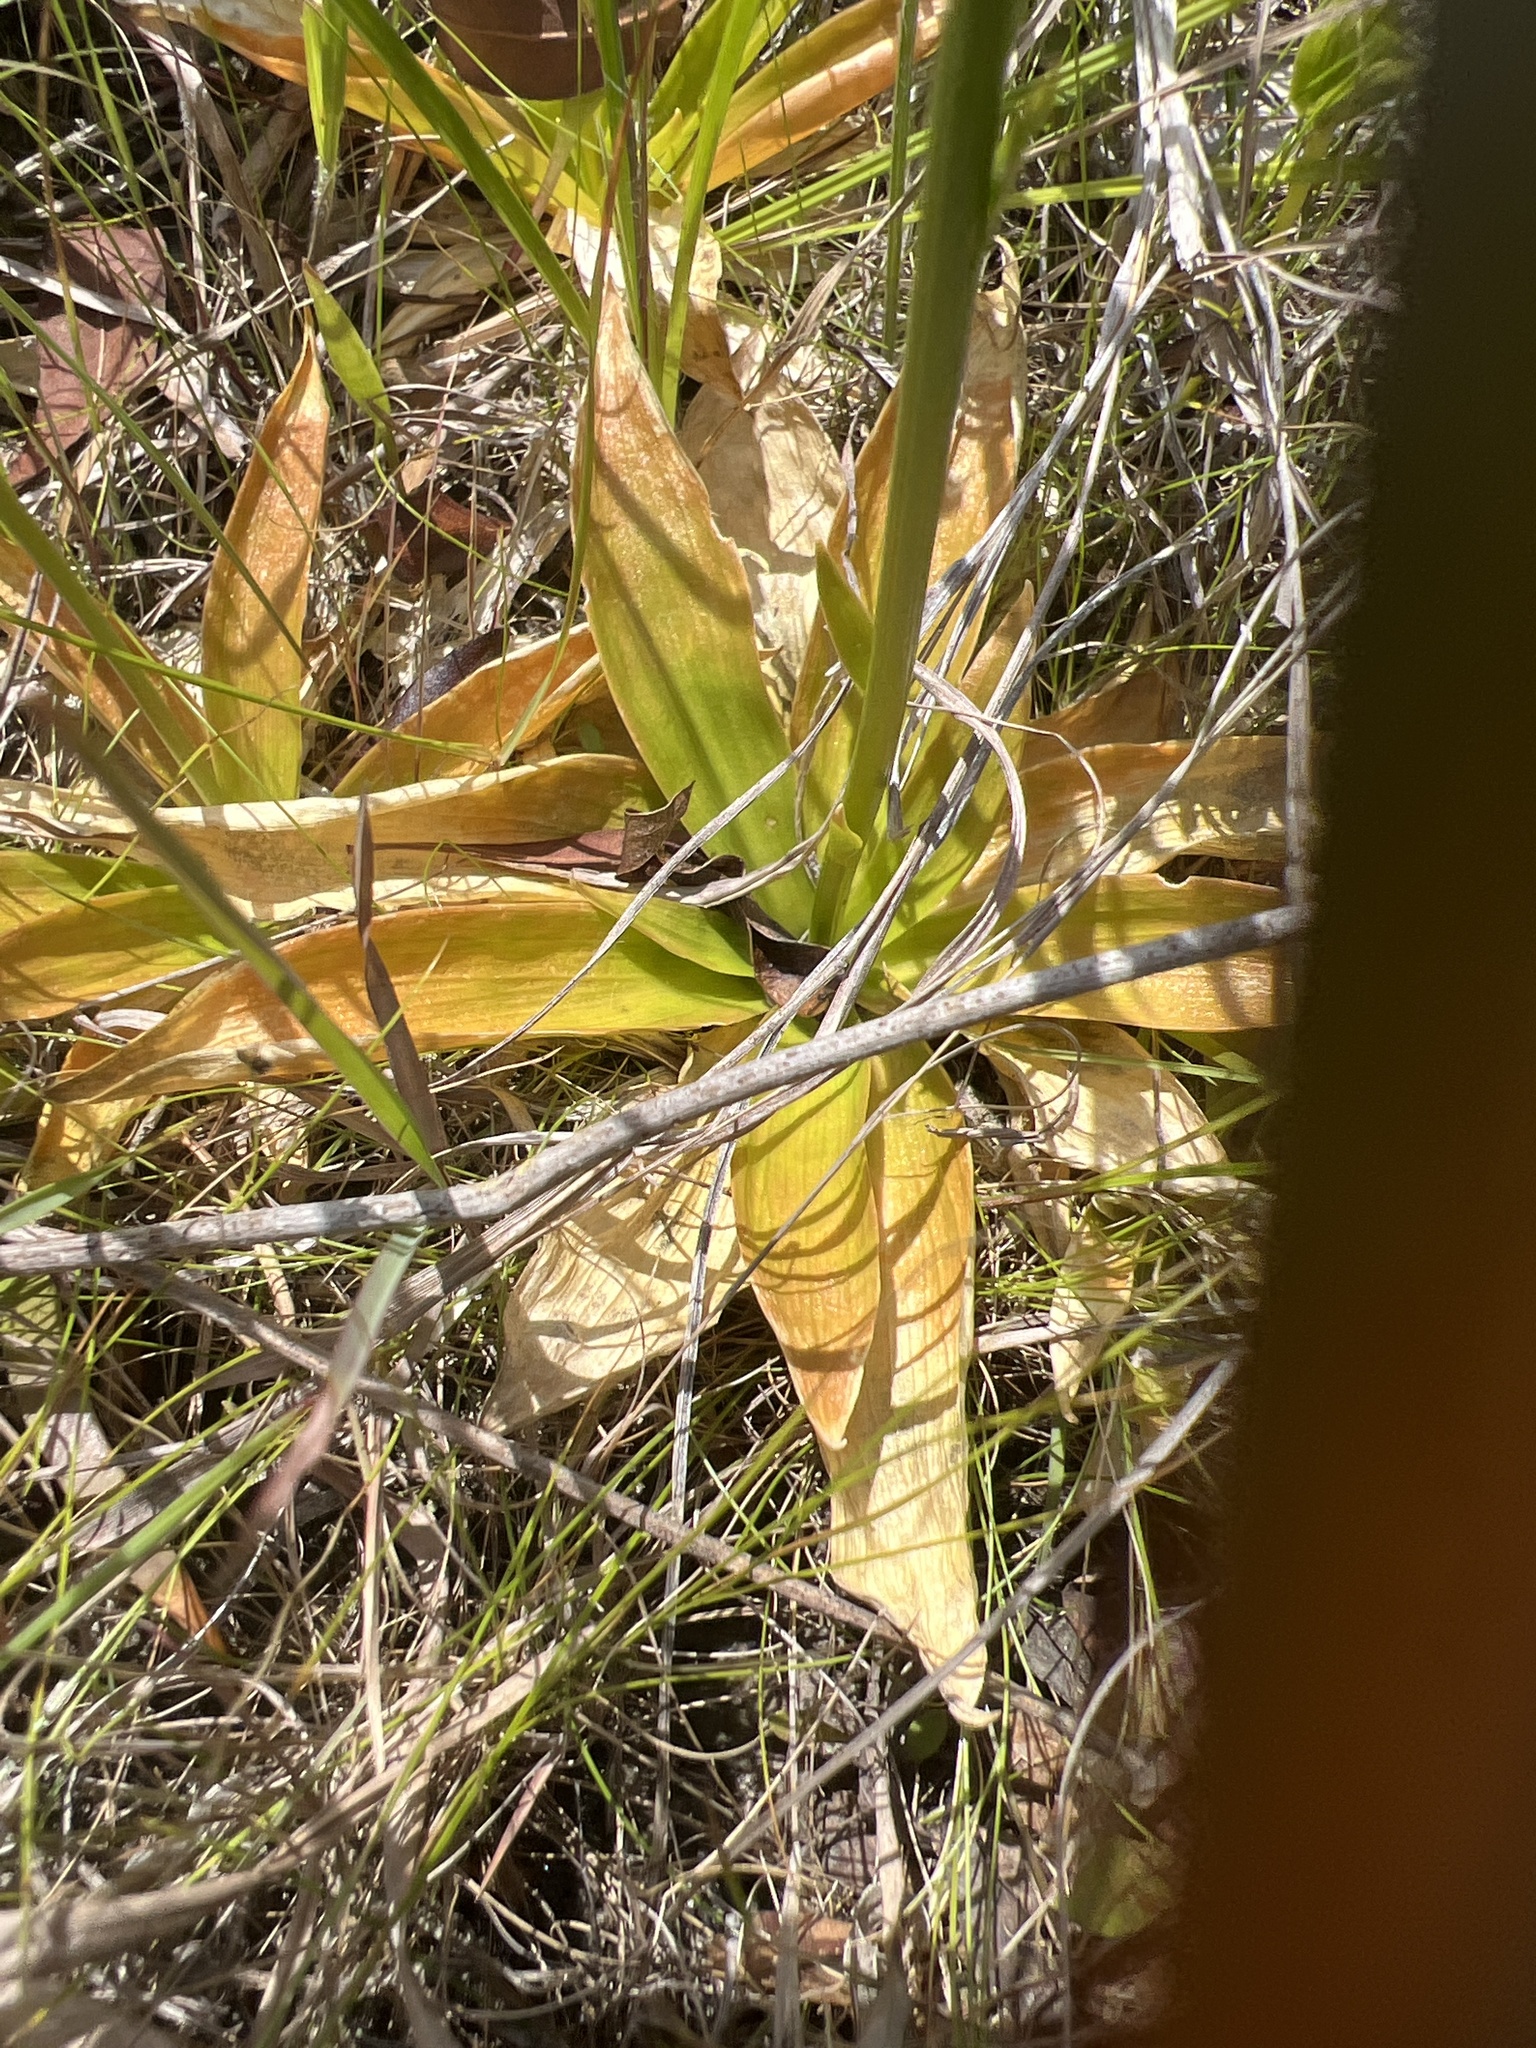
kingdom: Plantae
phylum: Tracheophyta
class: Liliopsida
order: Dioscoreales
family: Nartheciaceae
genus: Aletris
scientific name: Aletris aurea
